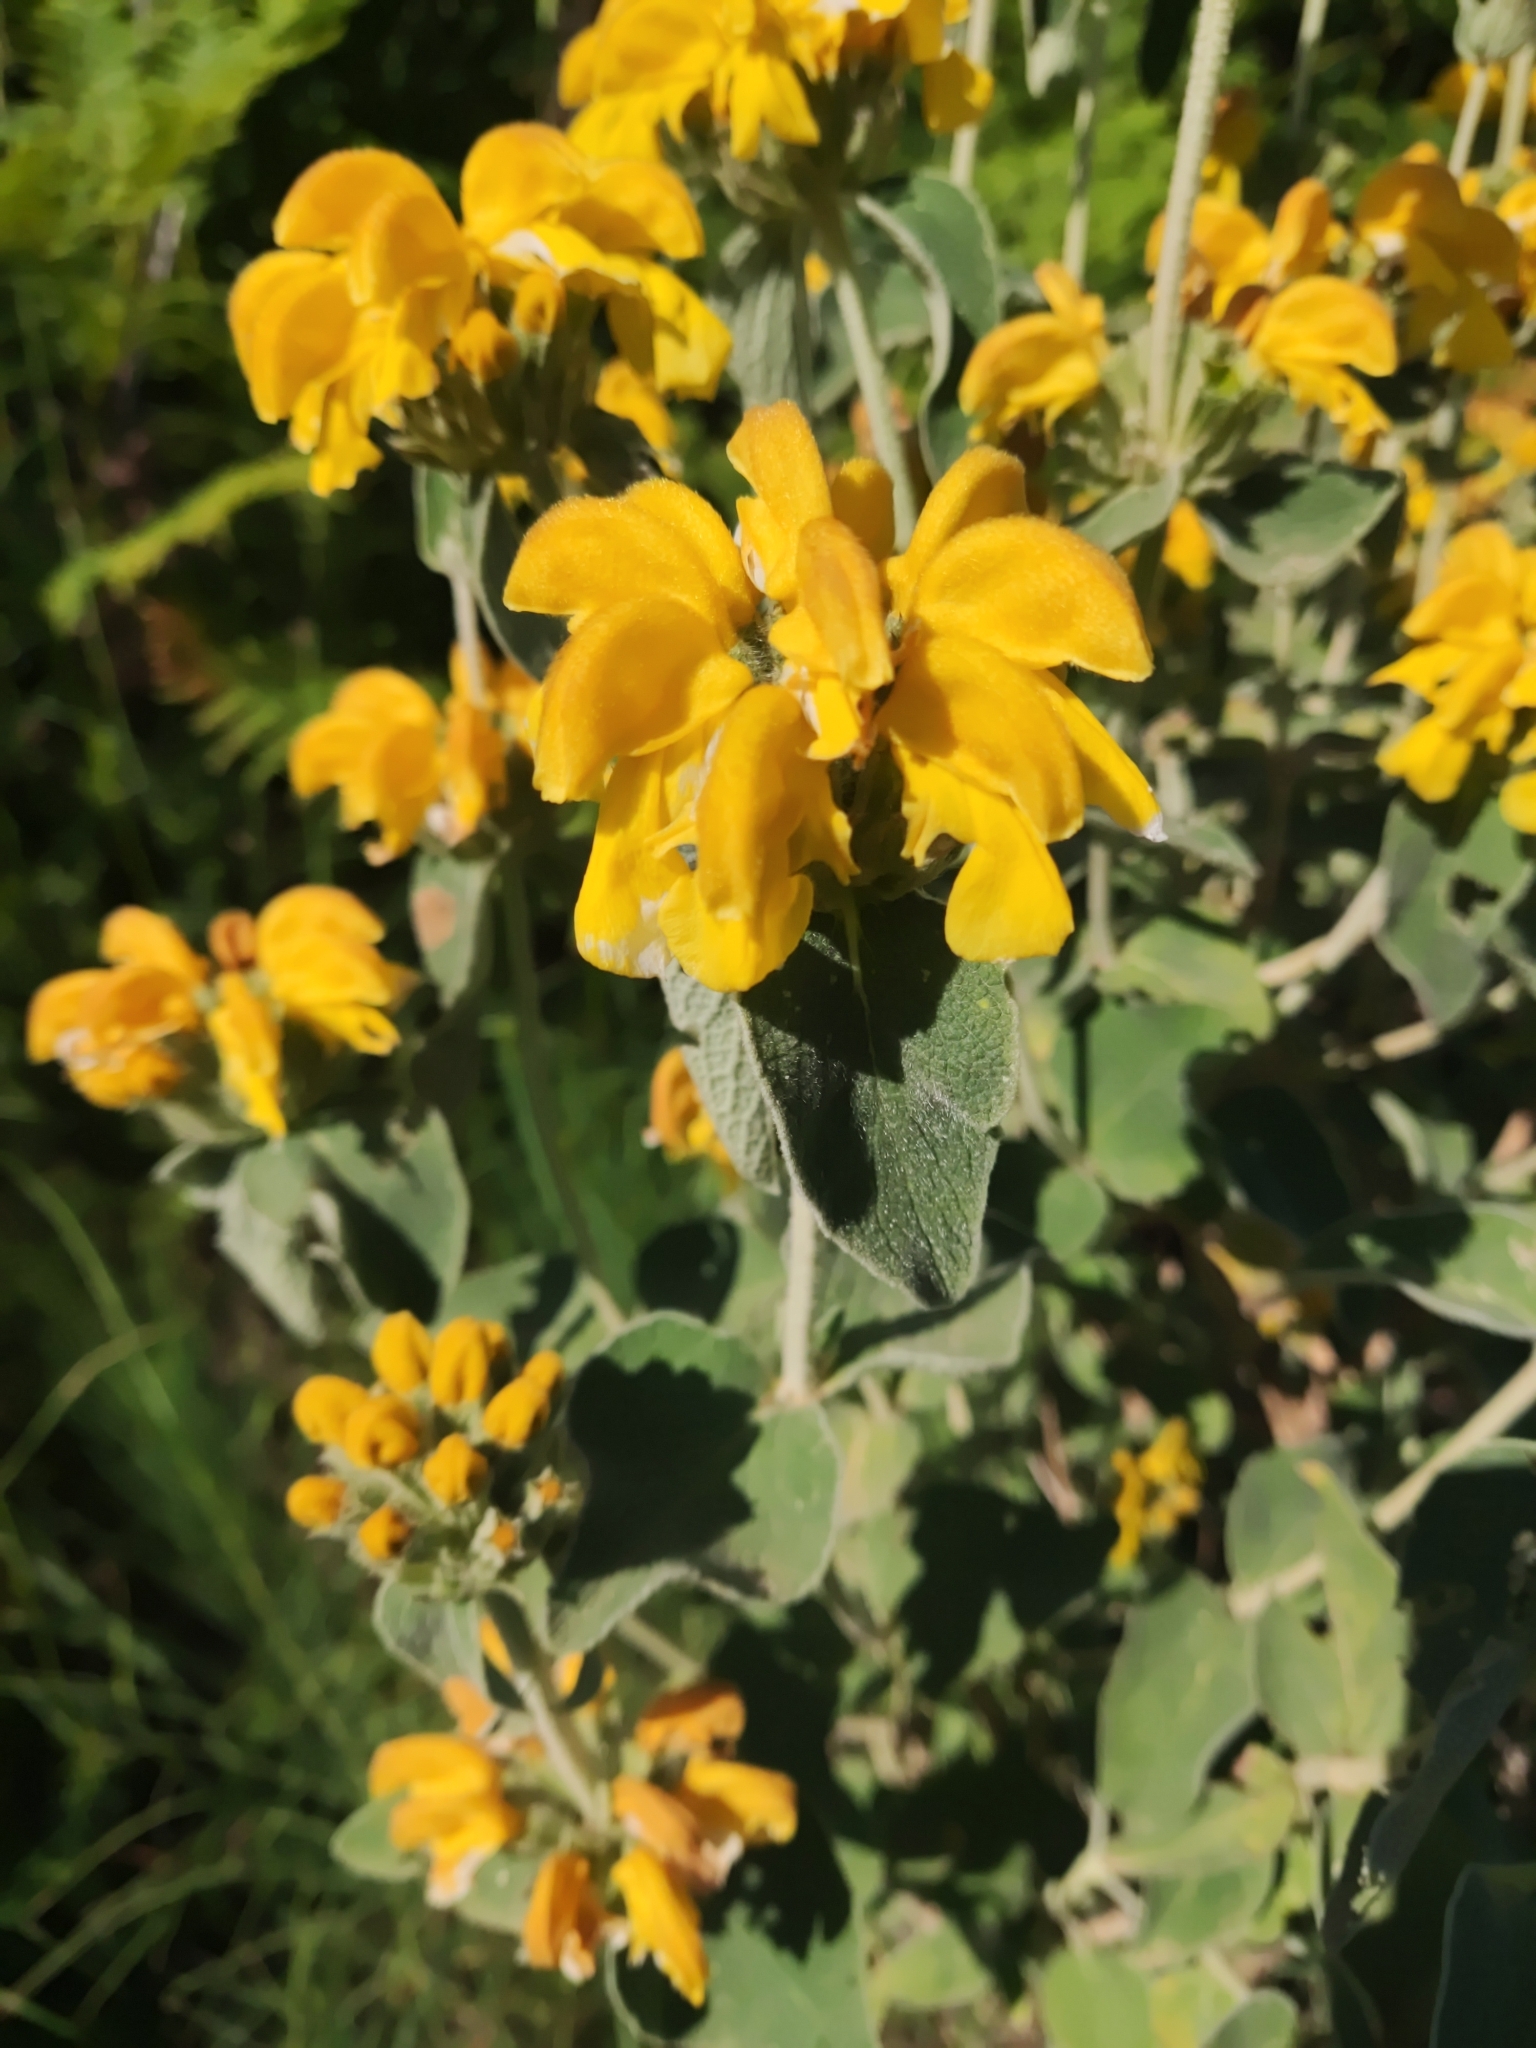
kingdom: Plantae
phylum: Tracheophyta
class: Magnoliopsida
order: Lamiales
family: Lamiaceae
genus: Phlomis
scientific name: Phlomis fruticosa
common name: Jerusalem sage
